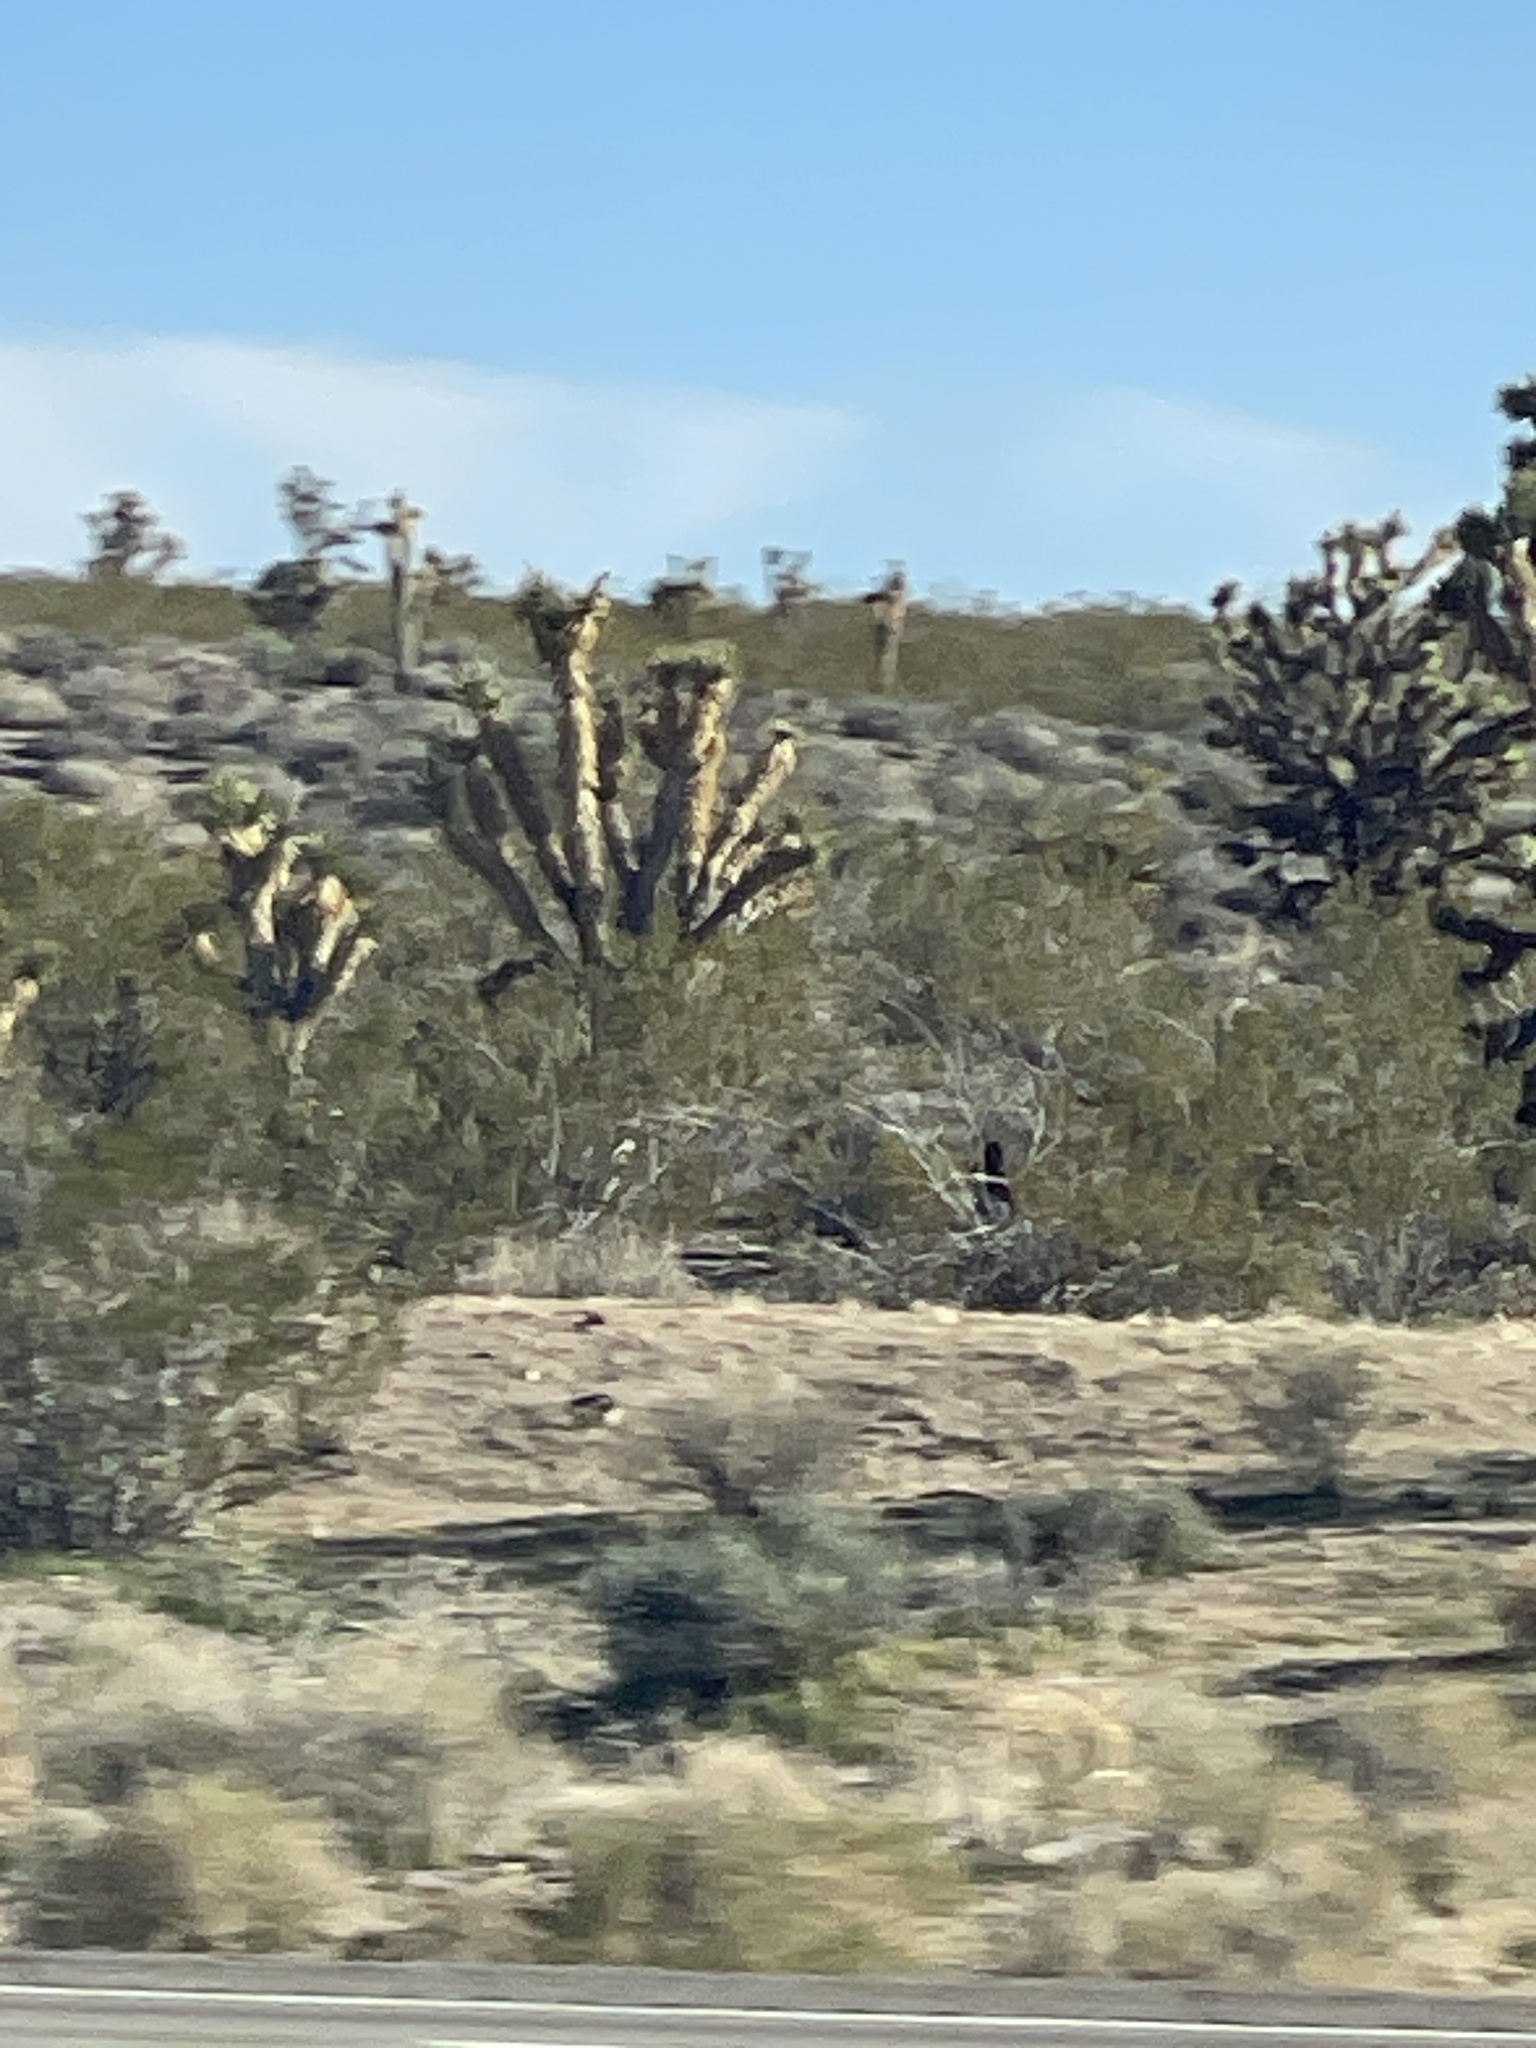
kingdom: Plantae
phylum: Tracheophyta
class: Liliopsida
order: Asparagales
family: Asparagaceae
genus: Yucca
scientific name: Yucca brevifolia
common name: Joshua tree
